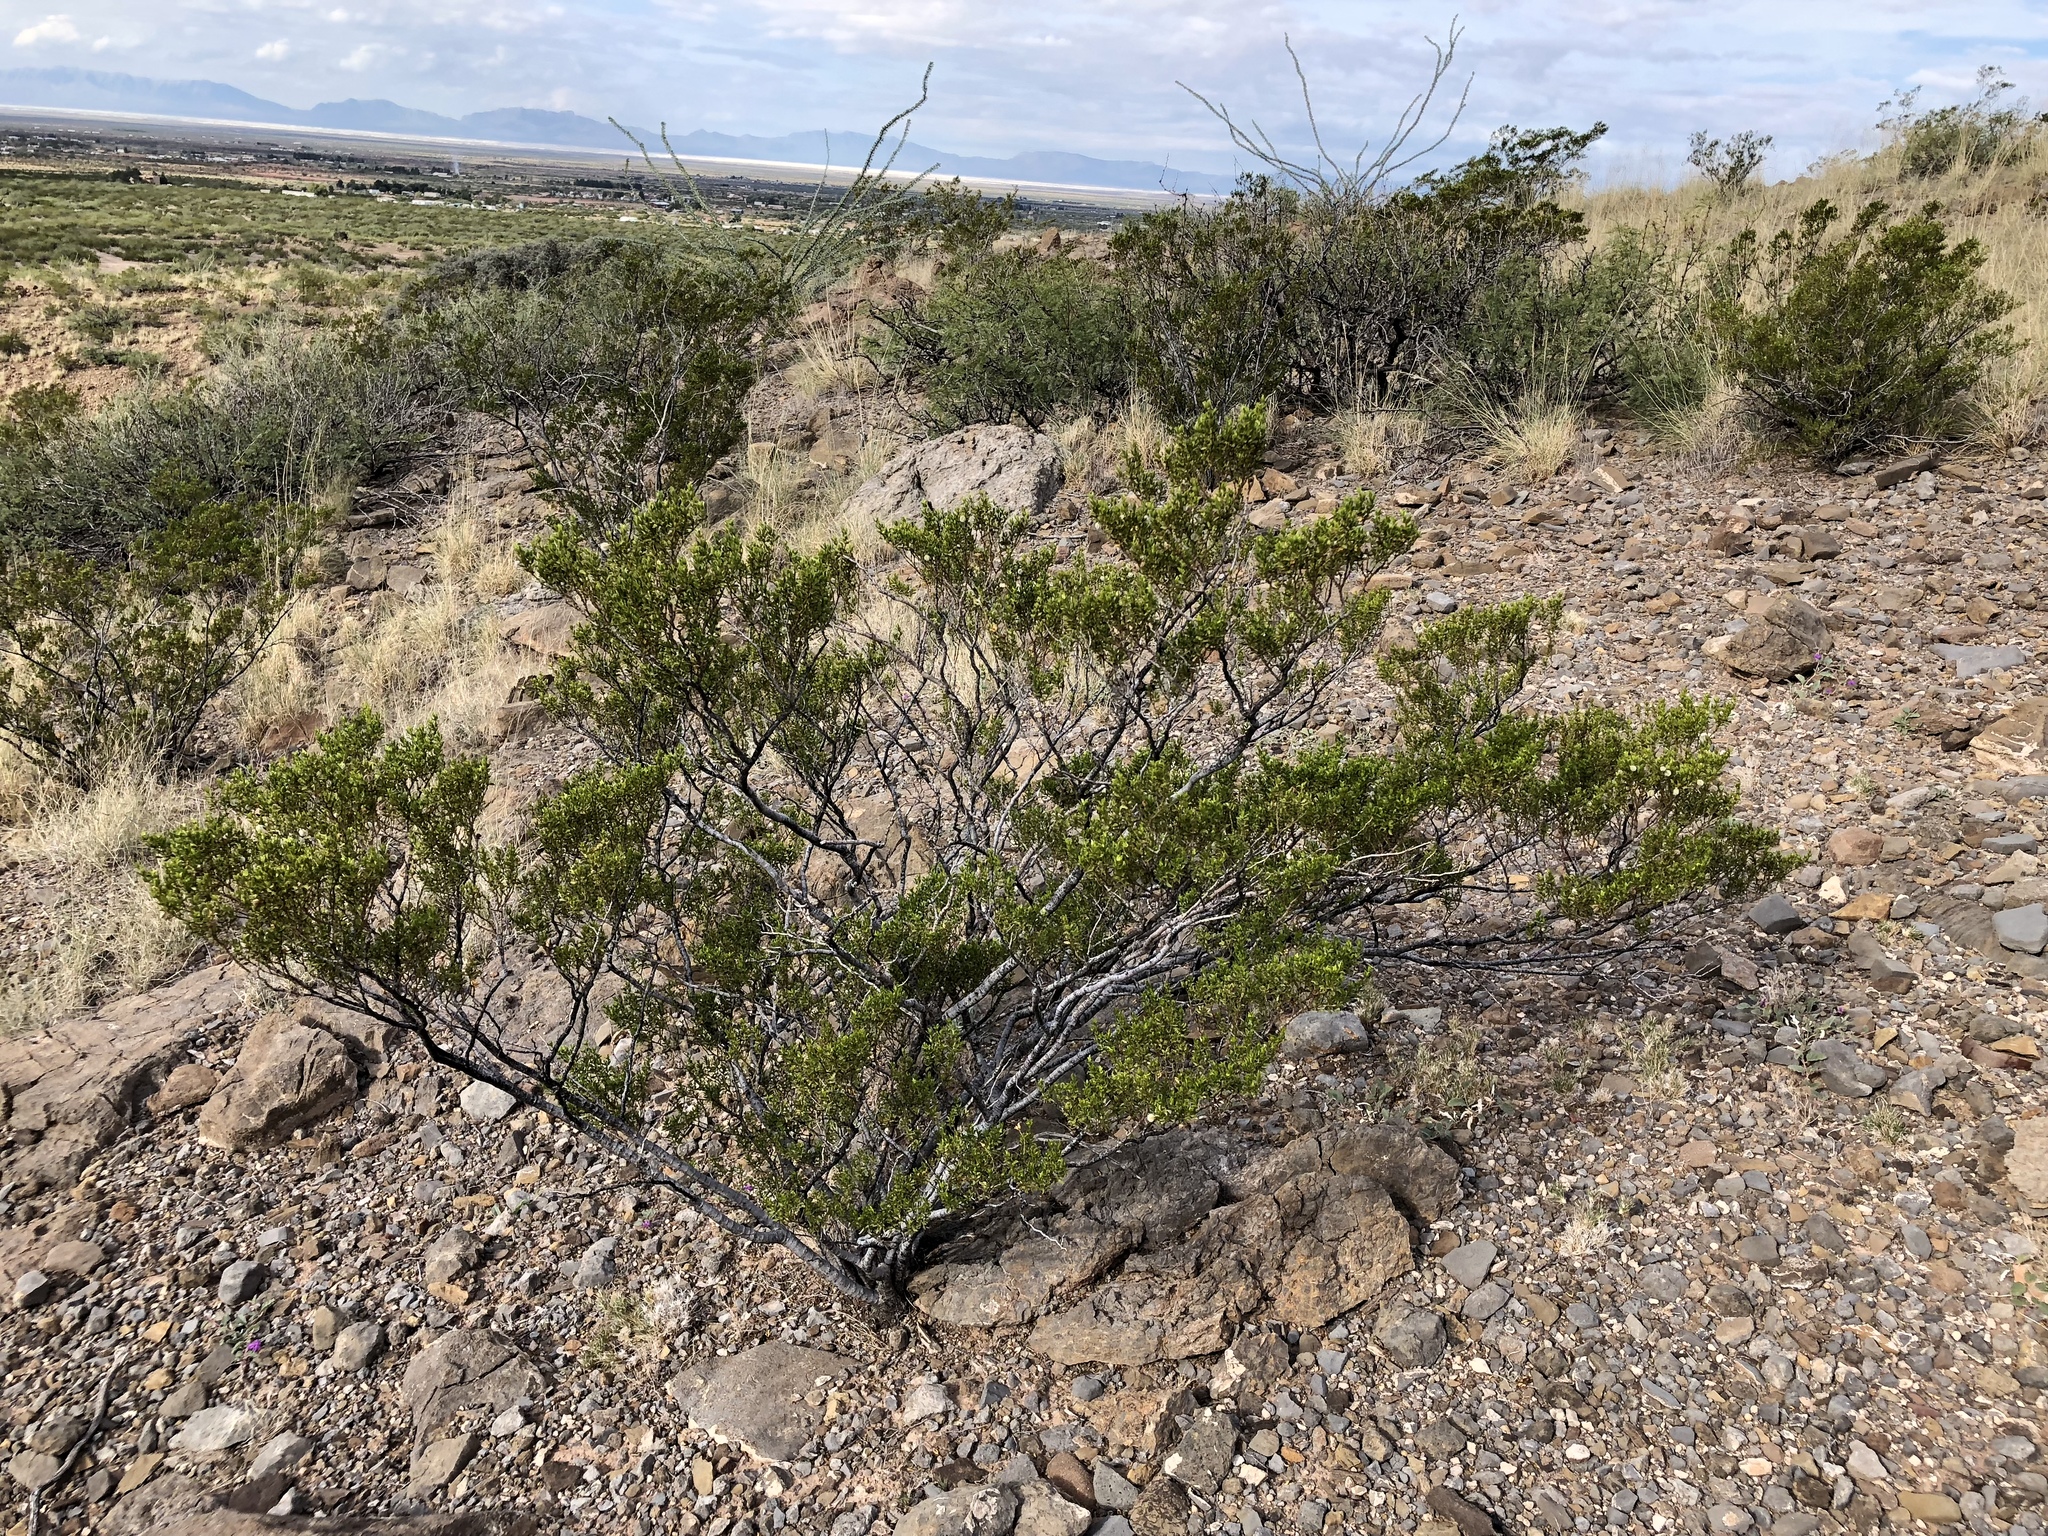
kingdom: Plantae
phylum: Tracheophyta
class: Magnoliopsida
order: Zygophyllales
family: Zygophyllaceae
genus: Larrea
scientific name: Larrea tridentata
